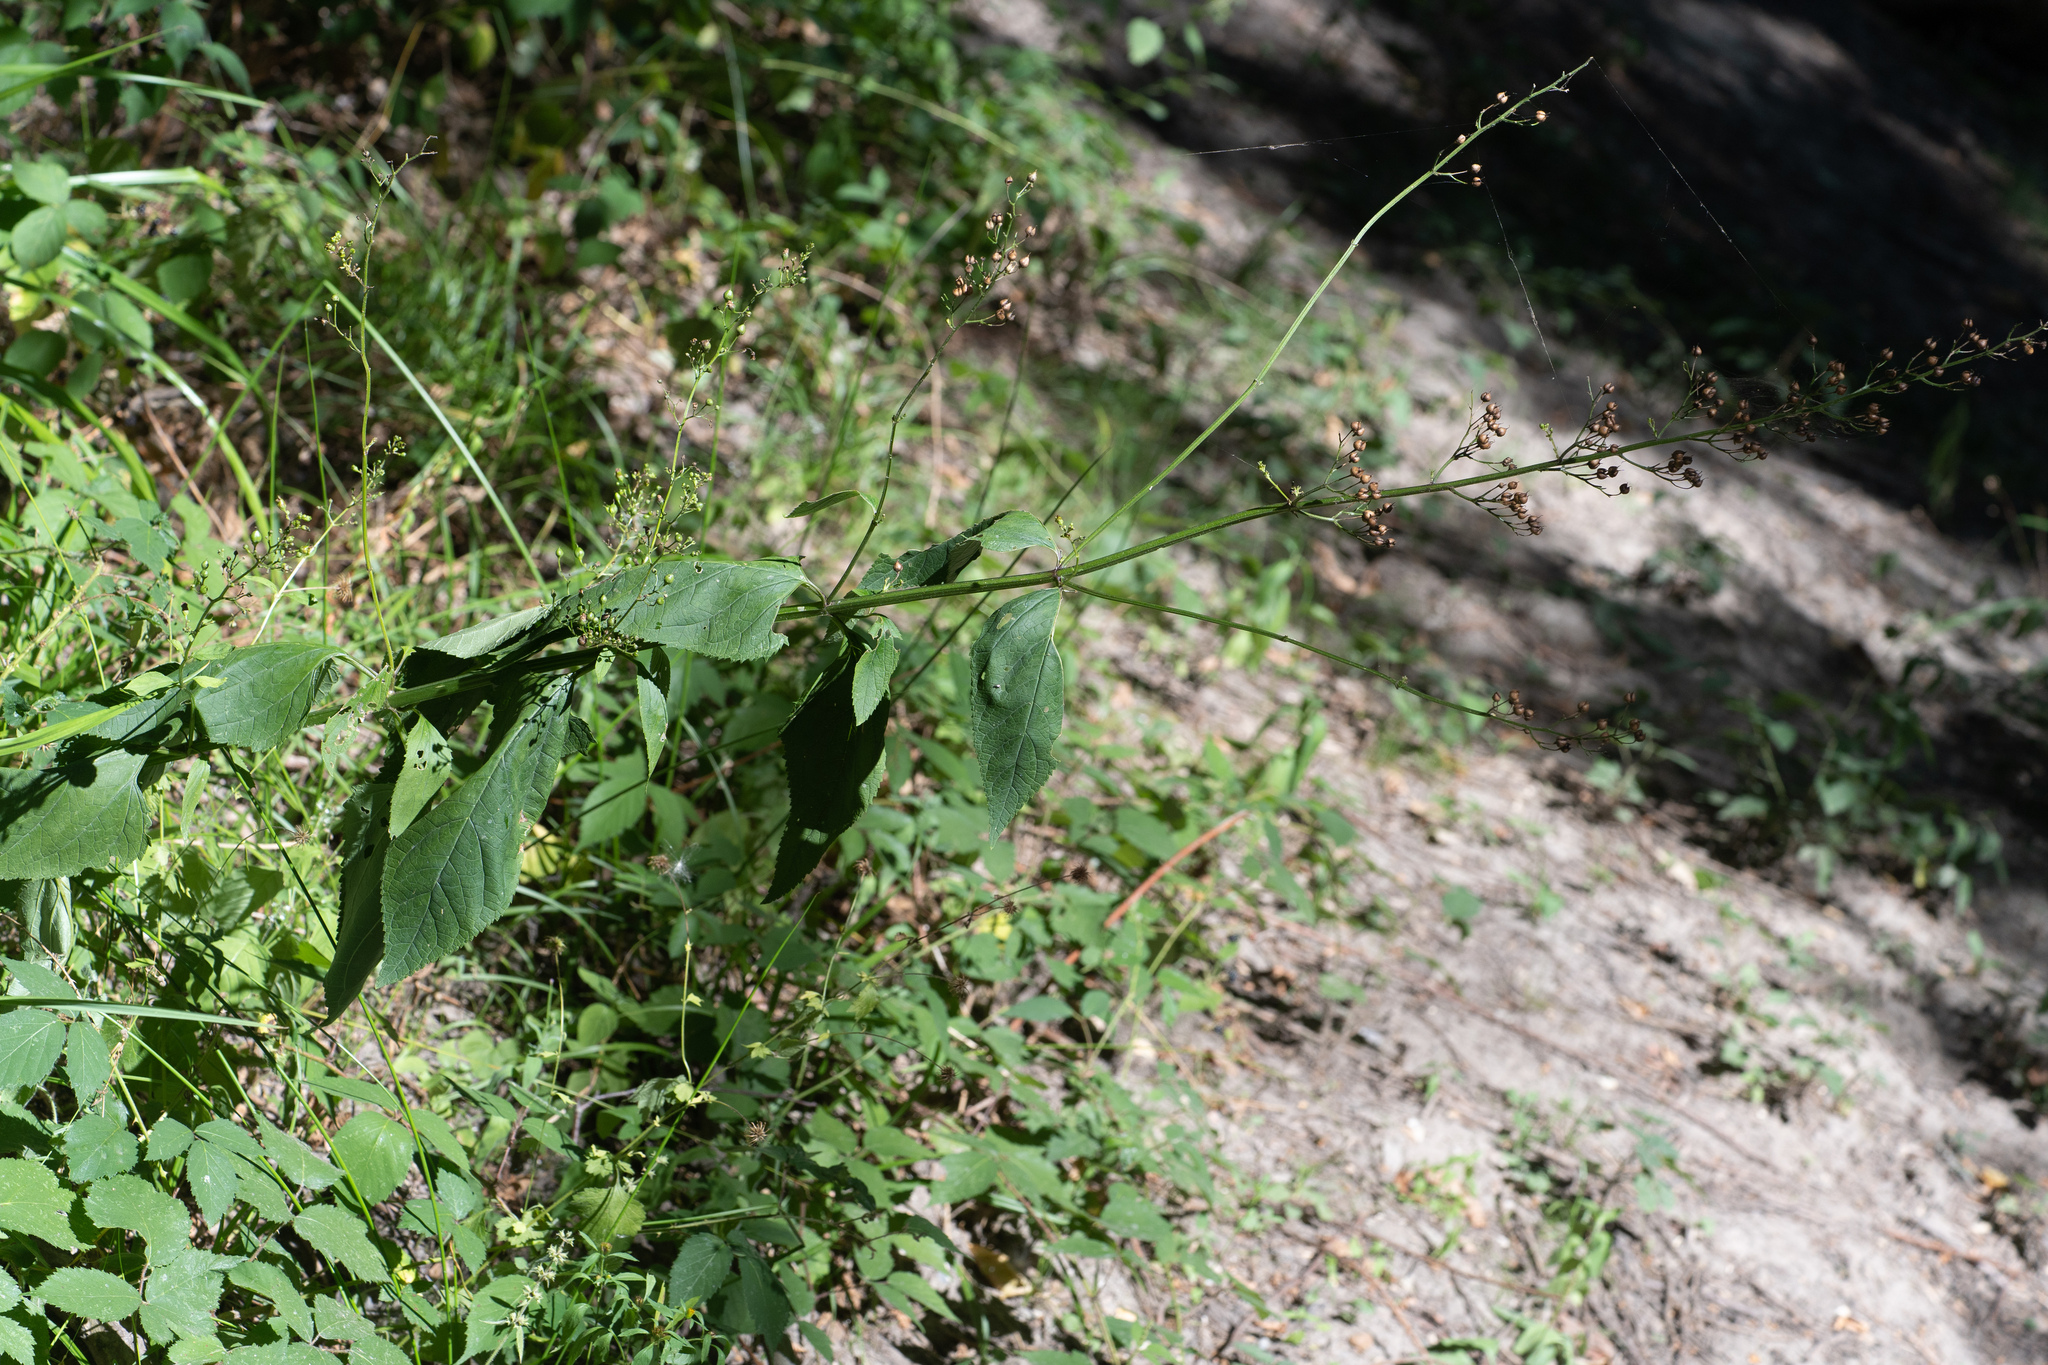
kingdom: Plantae
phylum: Tracheophyta
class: Magnoliopsida
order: Lamiales
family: Scrophulariaceae
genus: Scrophularia
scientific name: Scrophularia nodosa
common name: Common figwort
